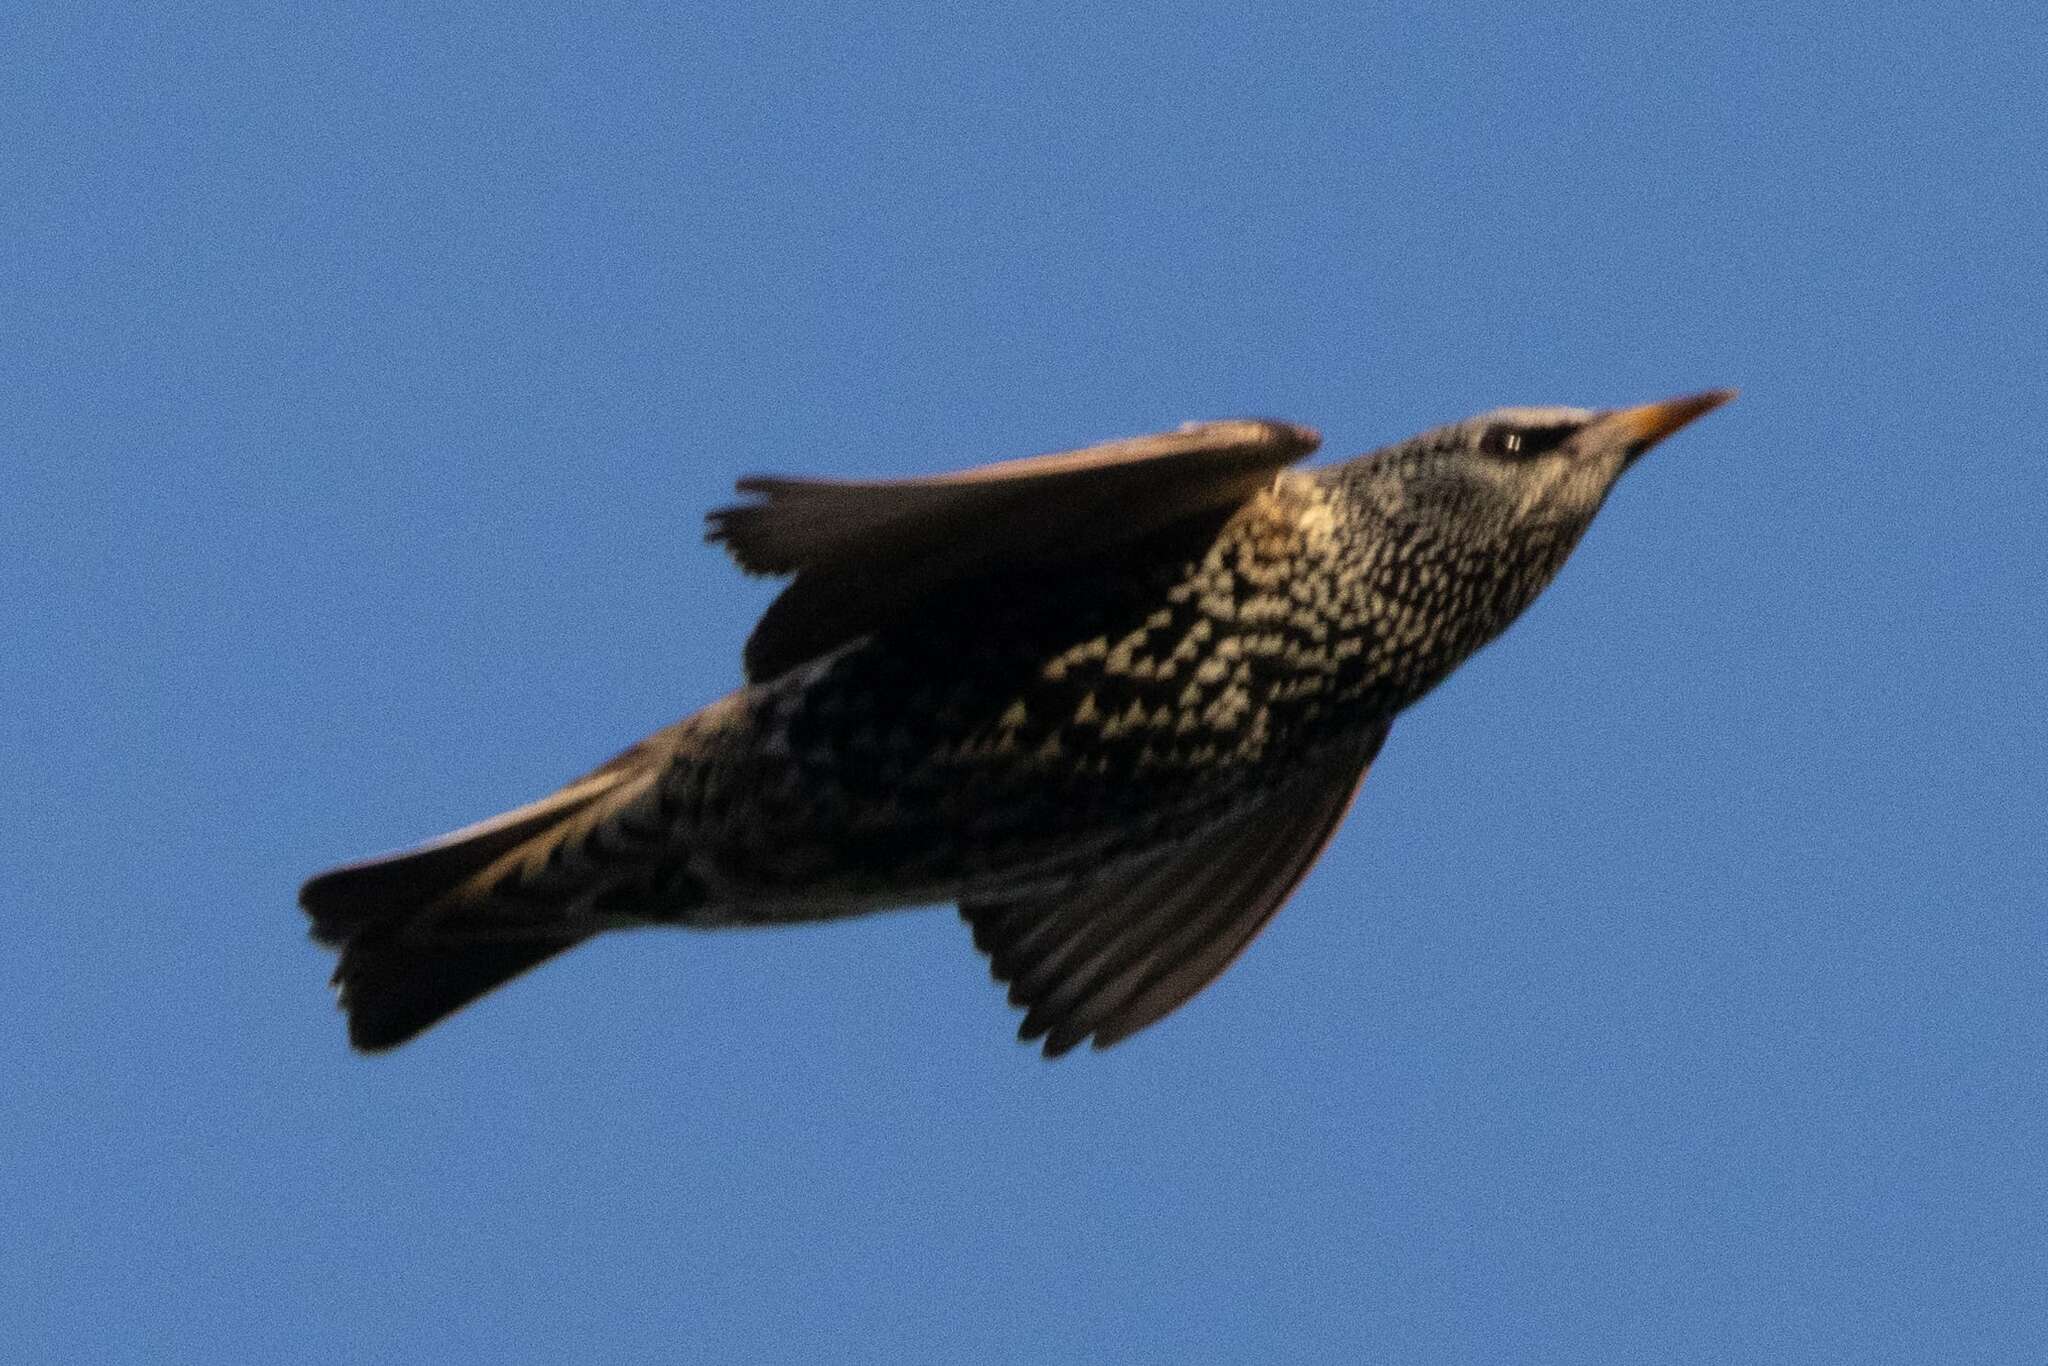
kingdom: Animalia
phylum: Chordata
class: Aves
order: Passeriformes
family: Sturnidae
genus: Sturnus
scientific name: Sturnus vulgaris
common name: Common starling
